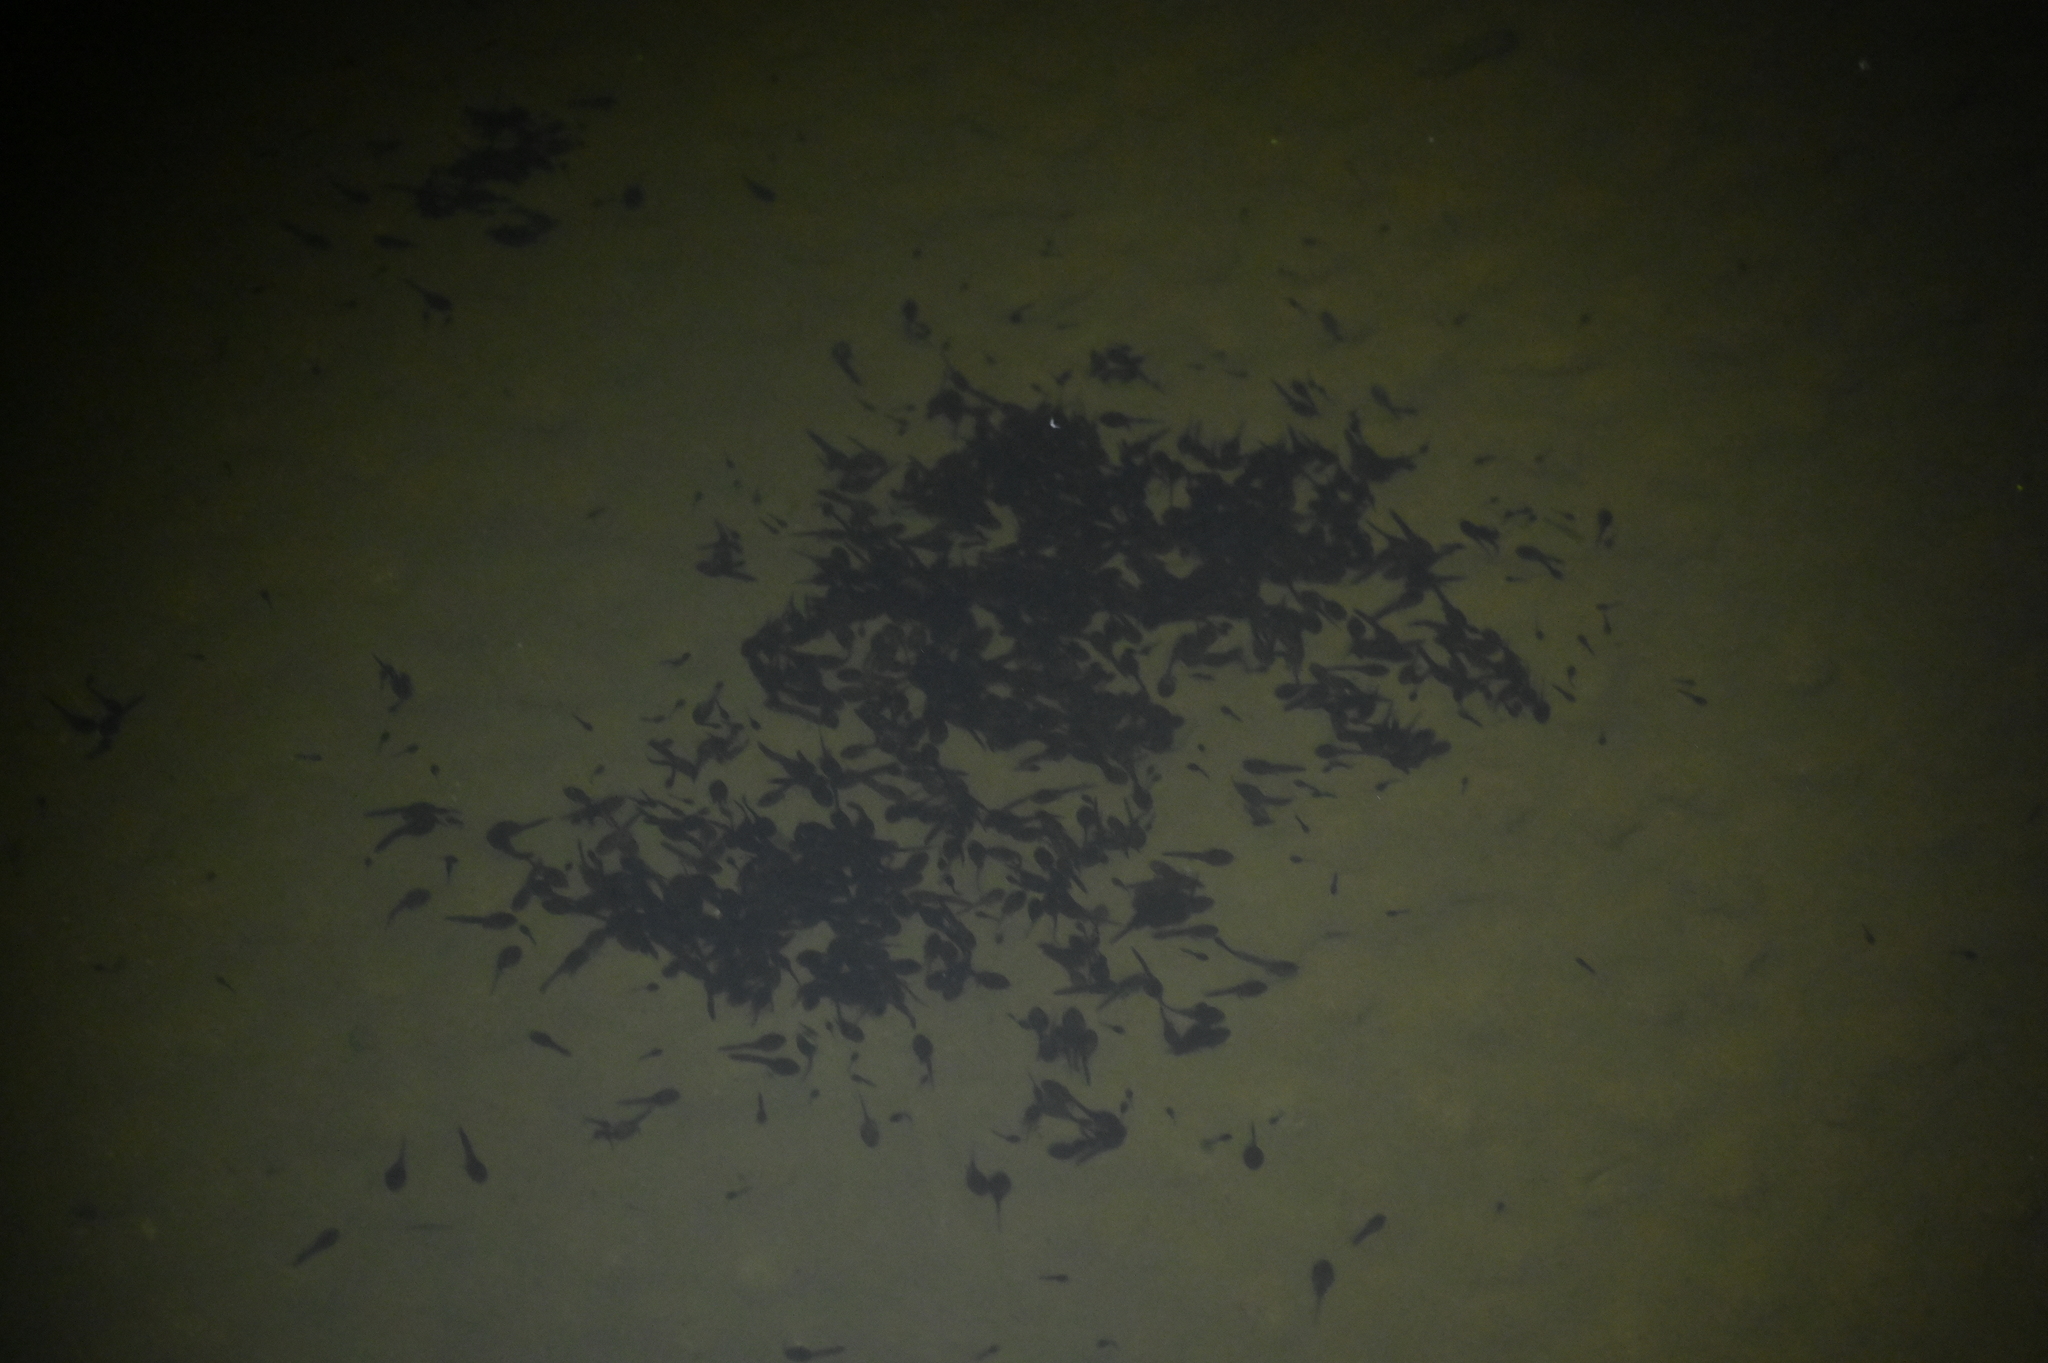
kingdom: Animalia
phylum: Chordata
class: Amphibia
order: Anura
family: Bufonidae
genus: Bufo
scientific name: Bufo bankorensis
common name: Bankor toad
